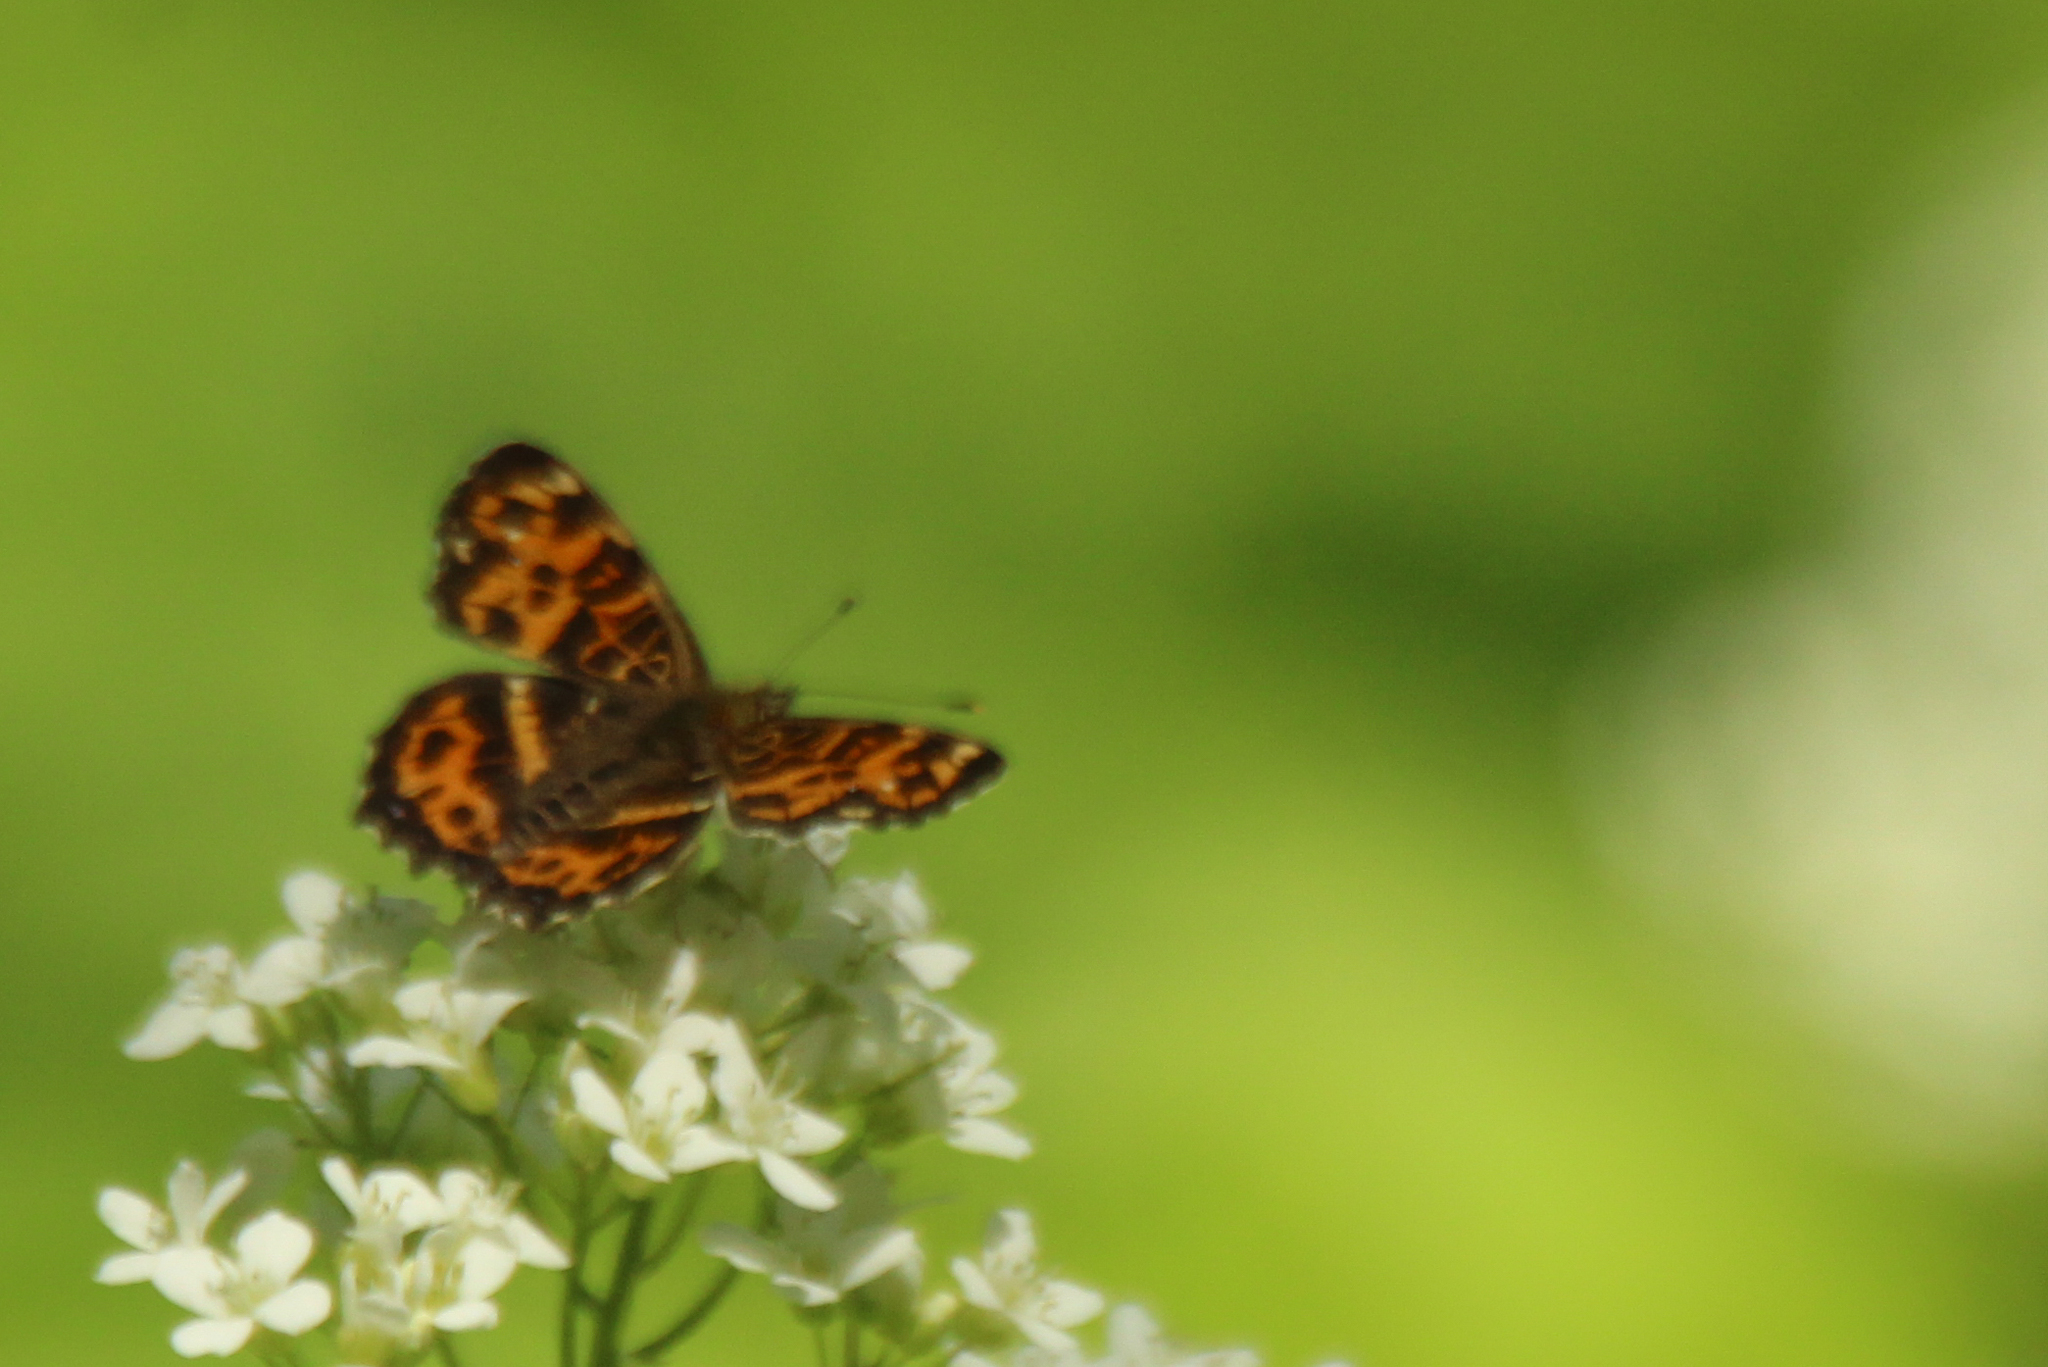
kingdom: Animalia
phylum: Arthropoda
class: Insecta
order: Lepidoptera
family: Nymphalidae
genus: Araschnia
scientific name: Araschnia burejana
